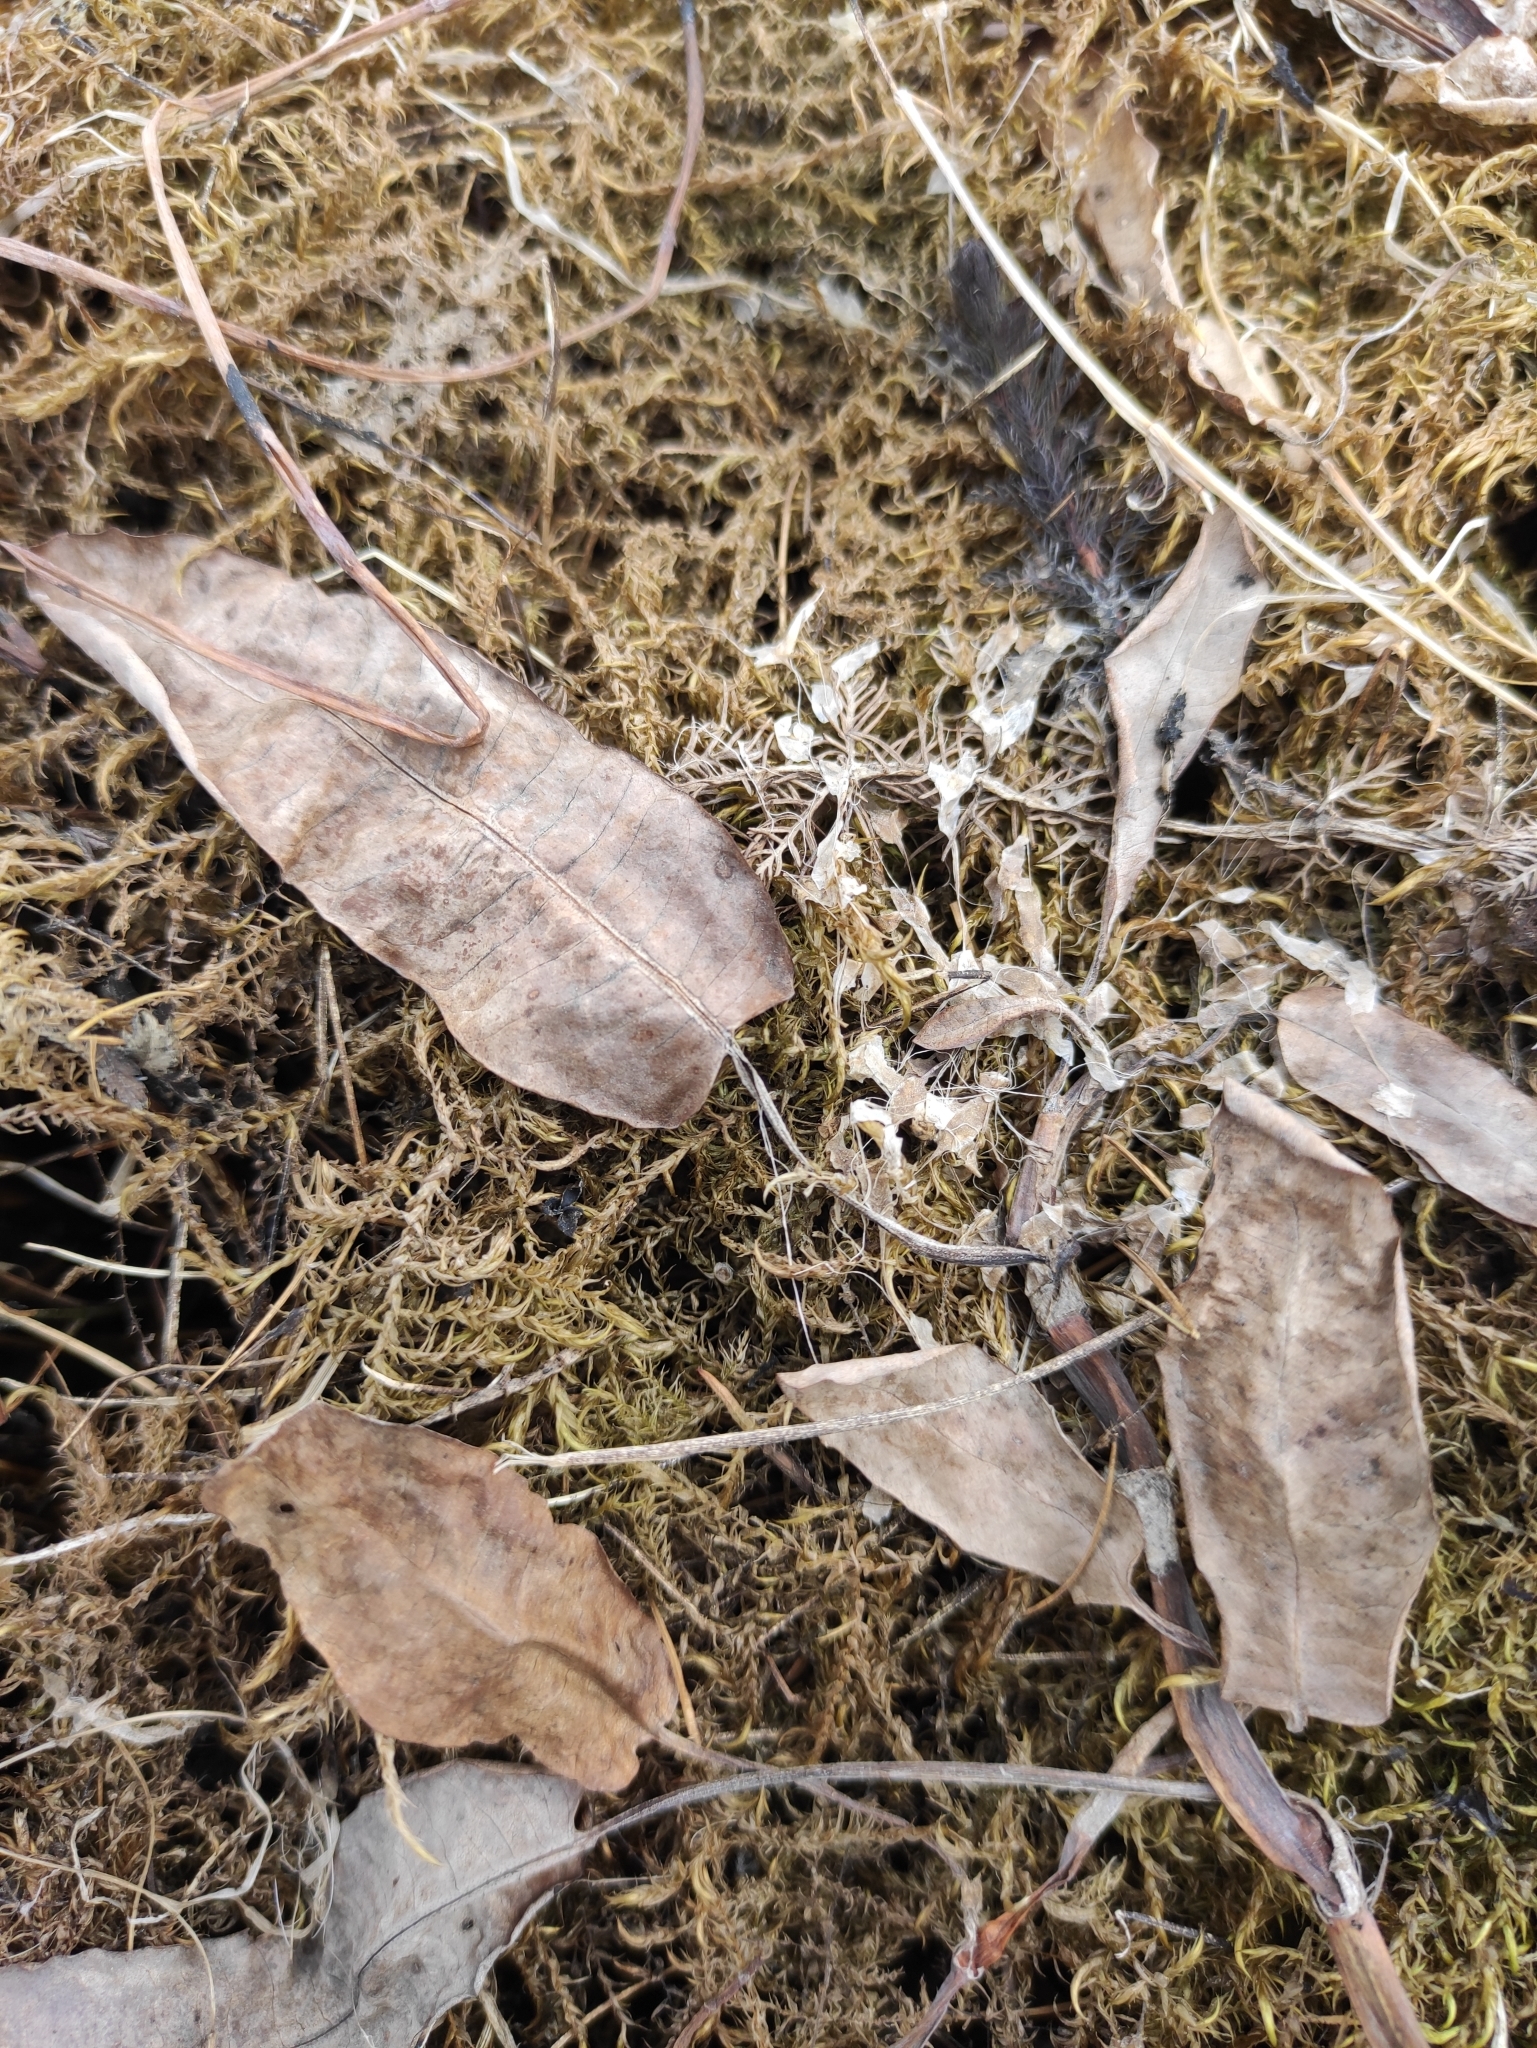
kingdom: Plantae
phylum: Tracheophyta
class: Magnoliopsida
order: Caryophyllales
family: Polygonaceae
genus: Persicaria
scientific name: Persicaria amphibia
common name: Amphibious bistort
